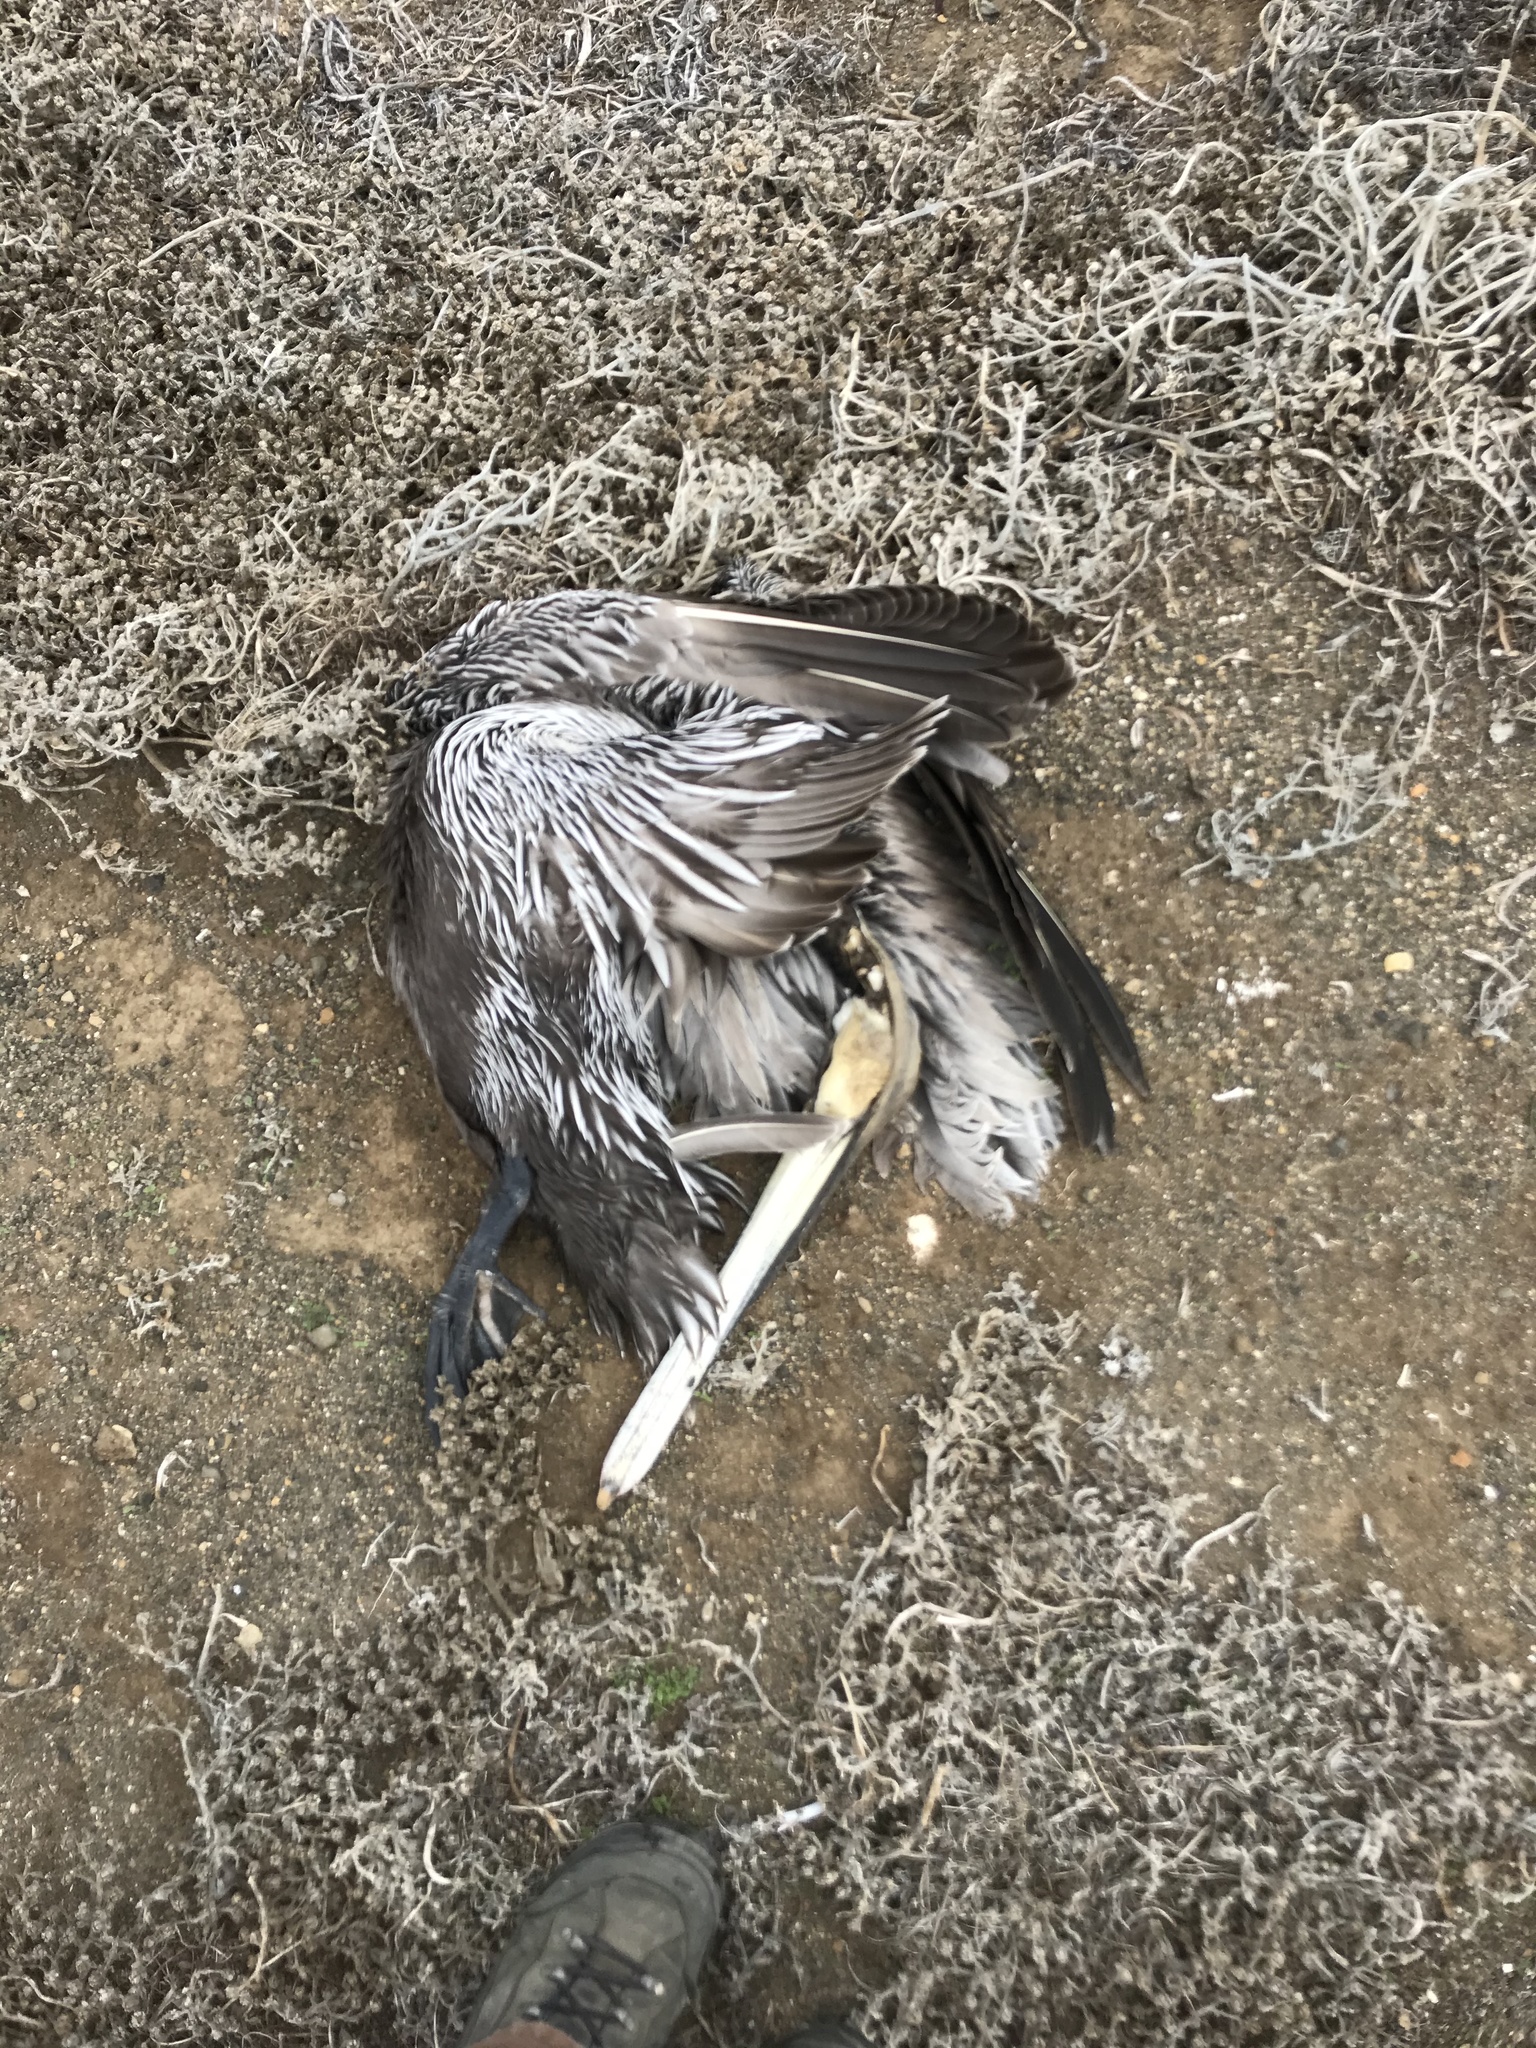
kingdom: Animalia
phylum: Chordata
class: Aves
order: Pelecaniformes
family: Pelecanidae
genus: Pelecanus
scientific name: Pelecanus occidentalis
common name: Brown pelican
